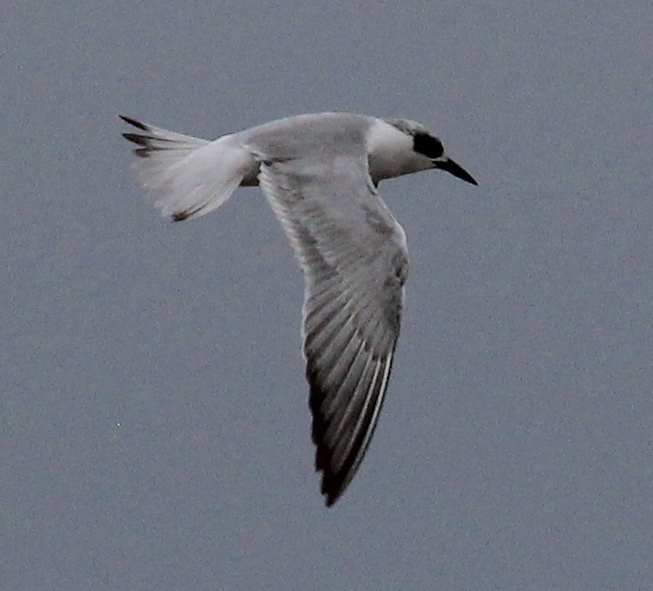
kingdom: Animalia
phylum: Chordata
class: Aves
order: Charadriiformes
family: Laridae
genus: Sterna
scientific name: Sterna forsteri
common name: Forster's tern
